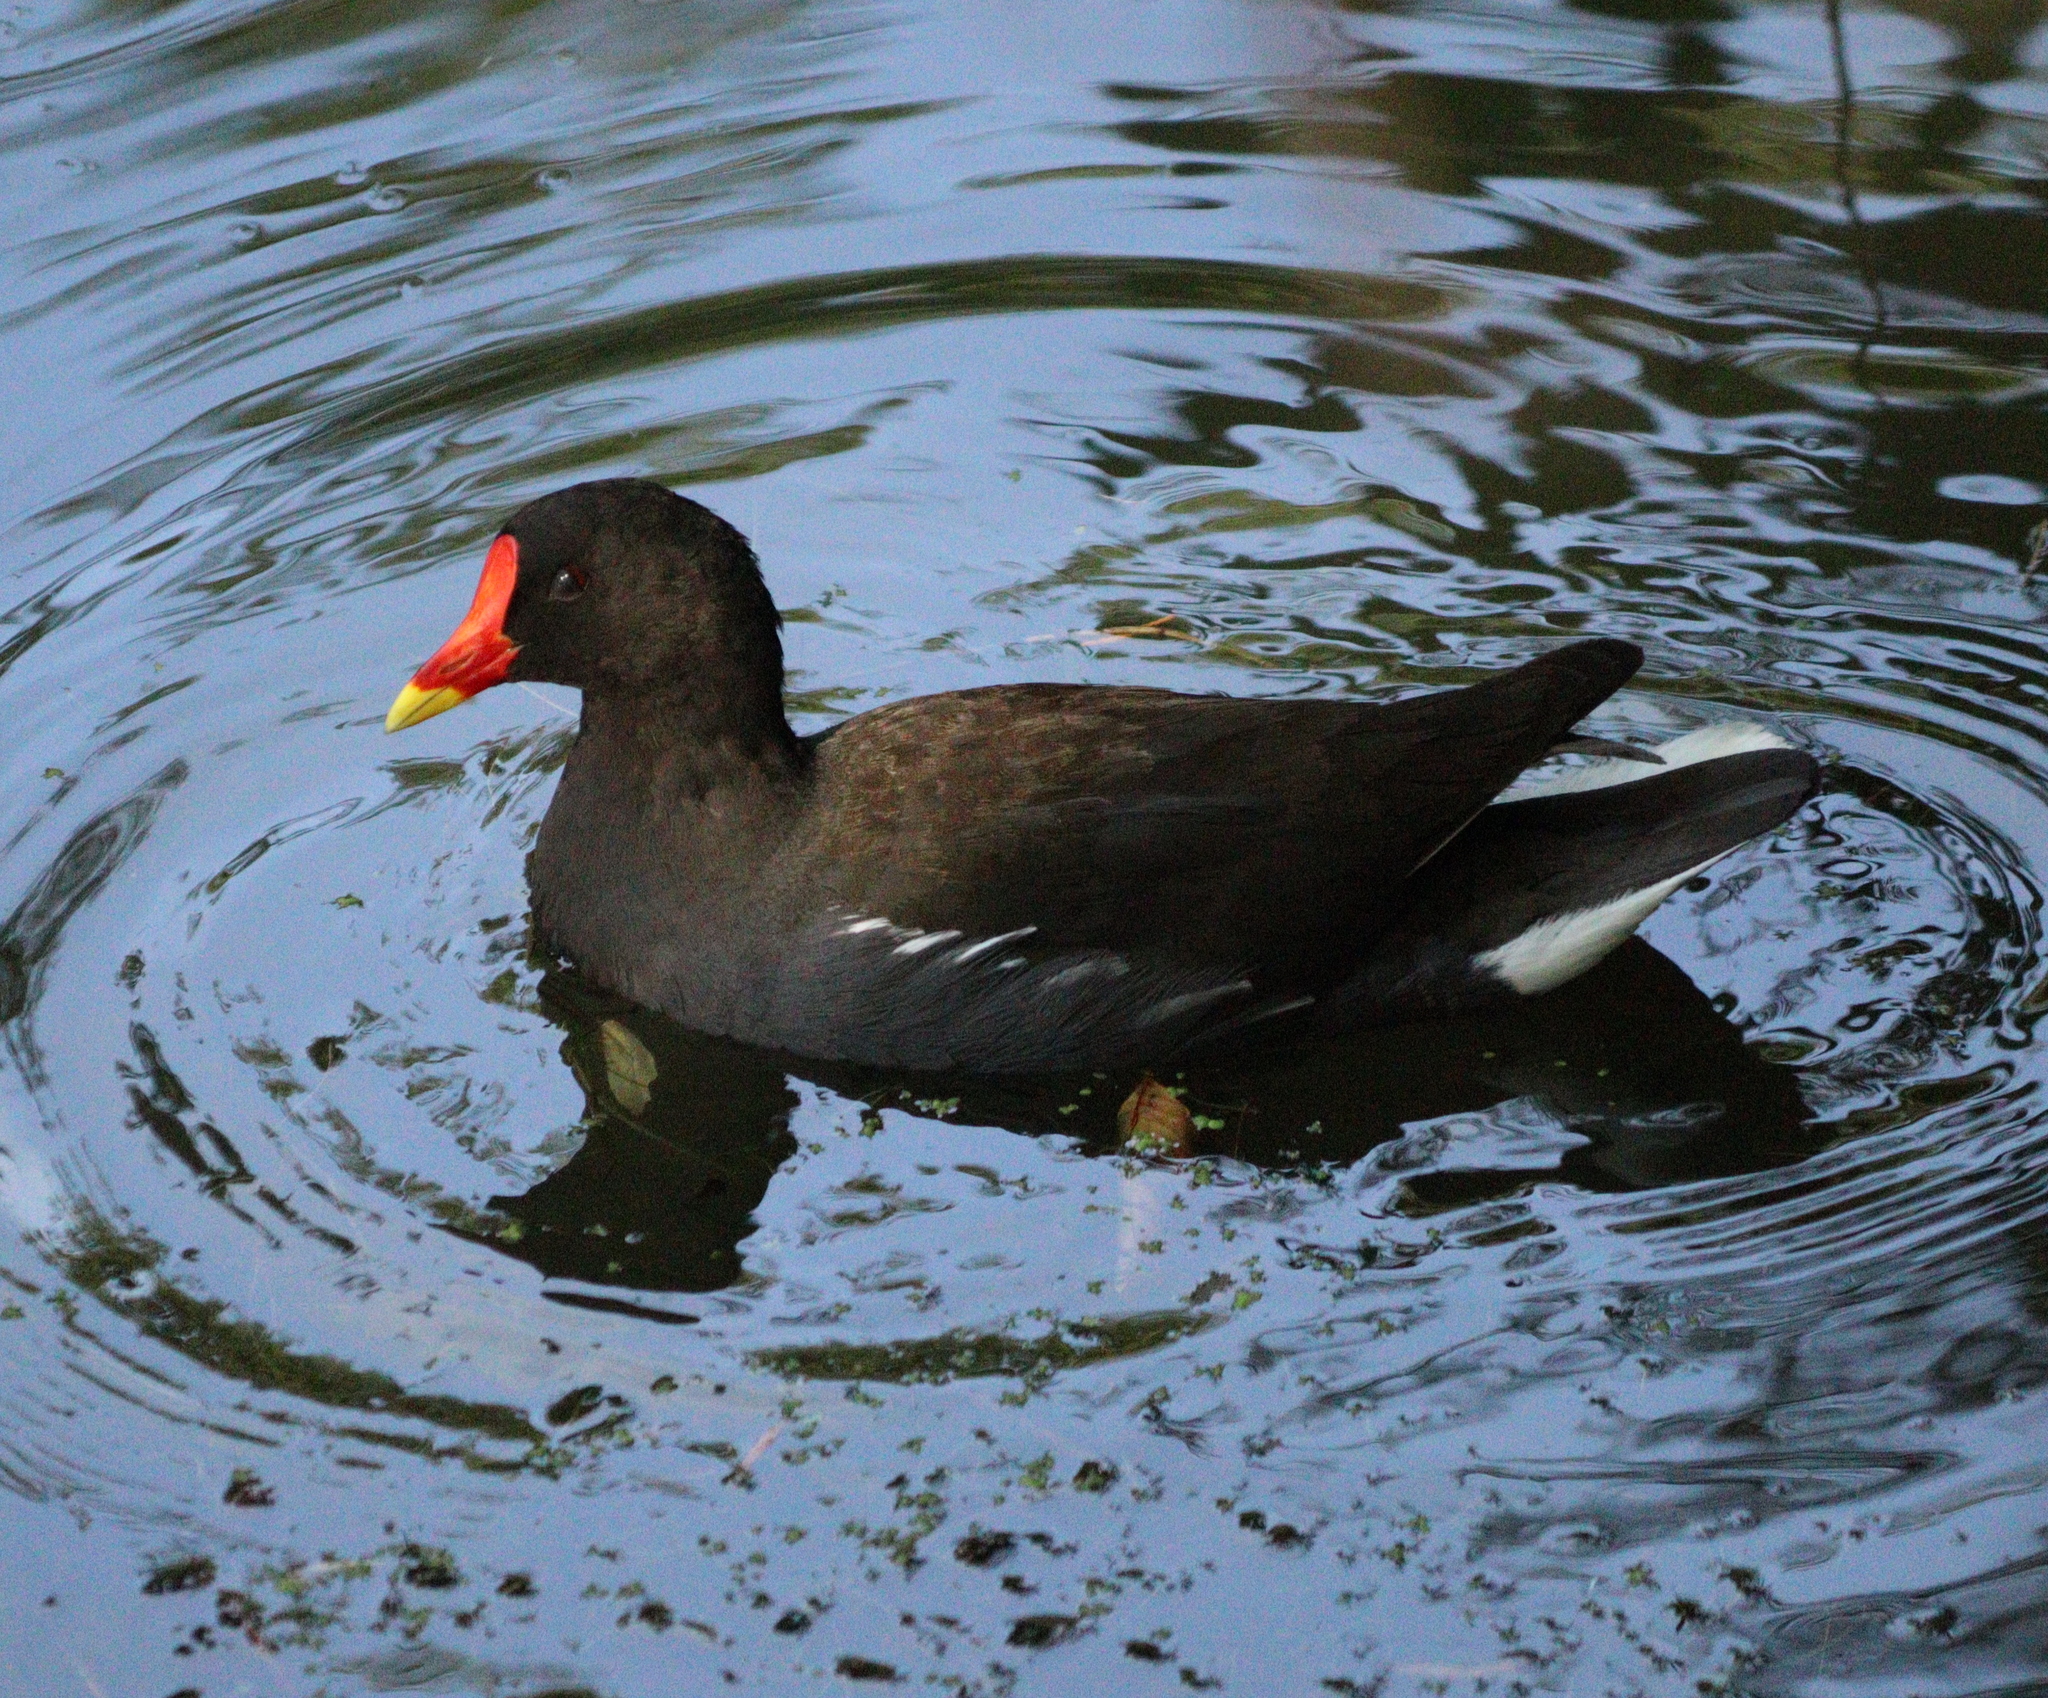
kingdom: Animalia
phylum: Chordata
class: Aves
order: Gruiformes
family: Rallidae
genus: Gallinula
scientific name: Gallinula chloropus
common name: Common moorhen
